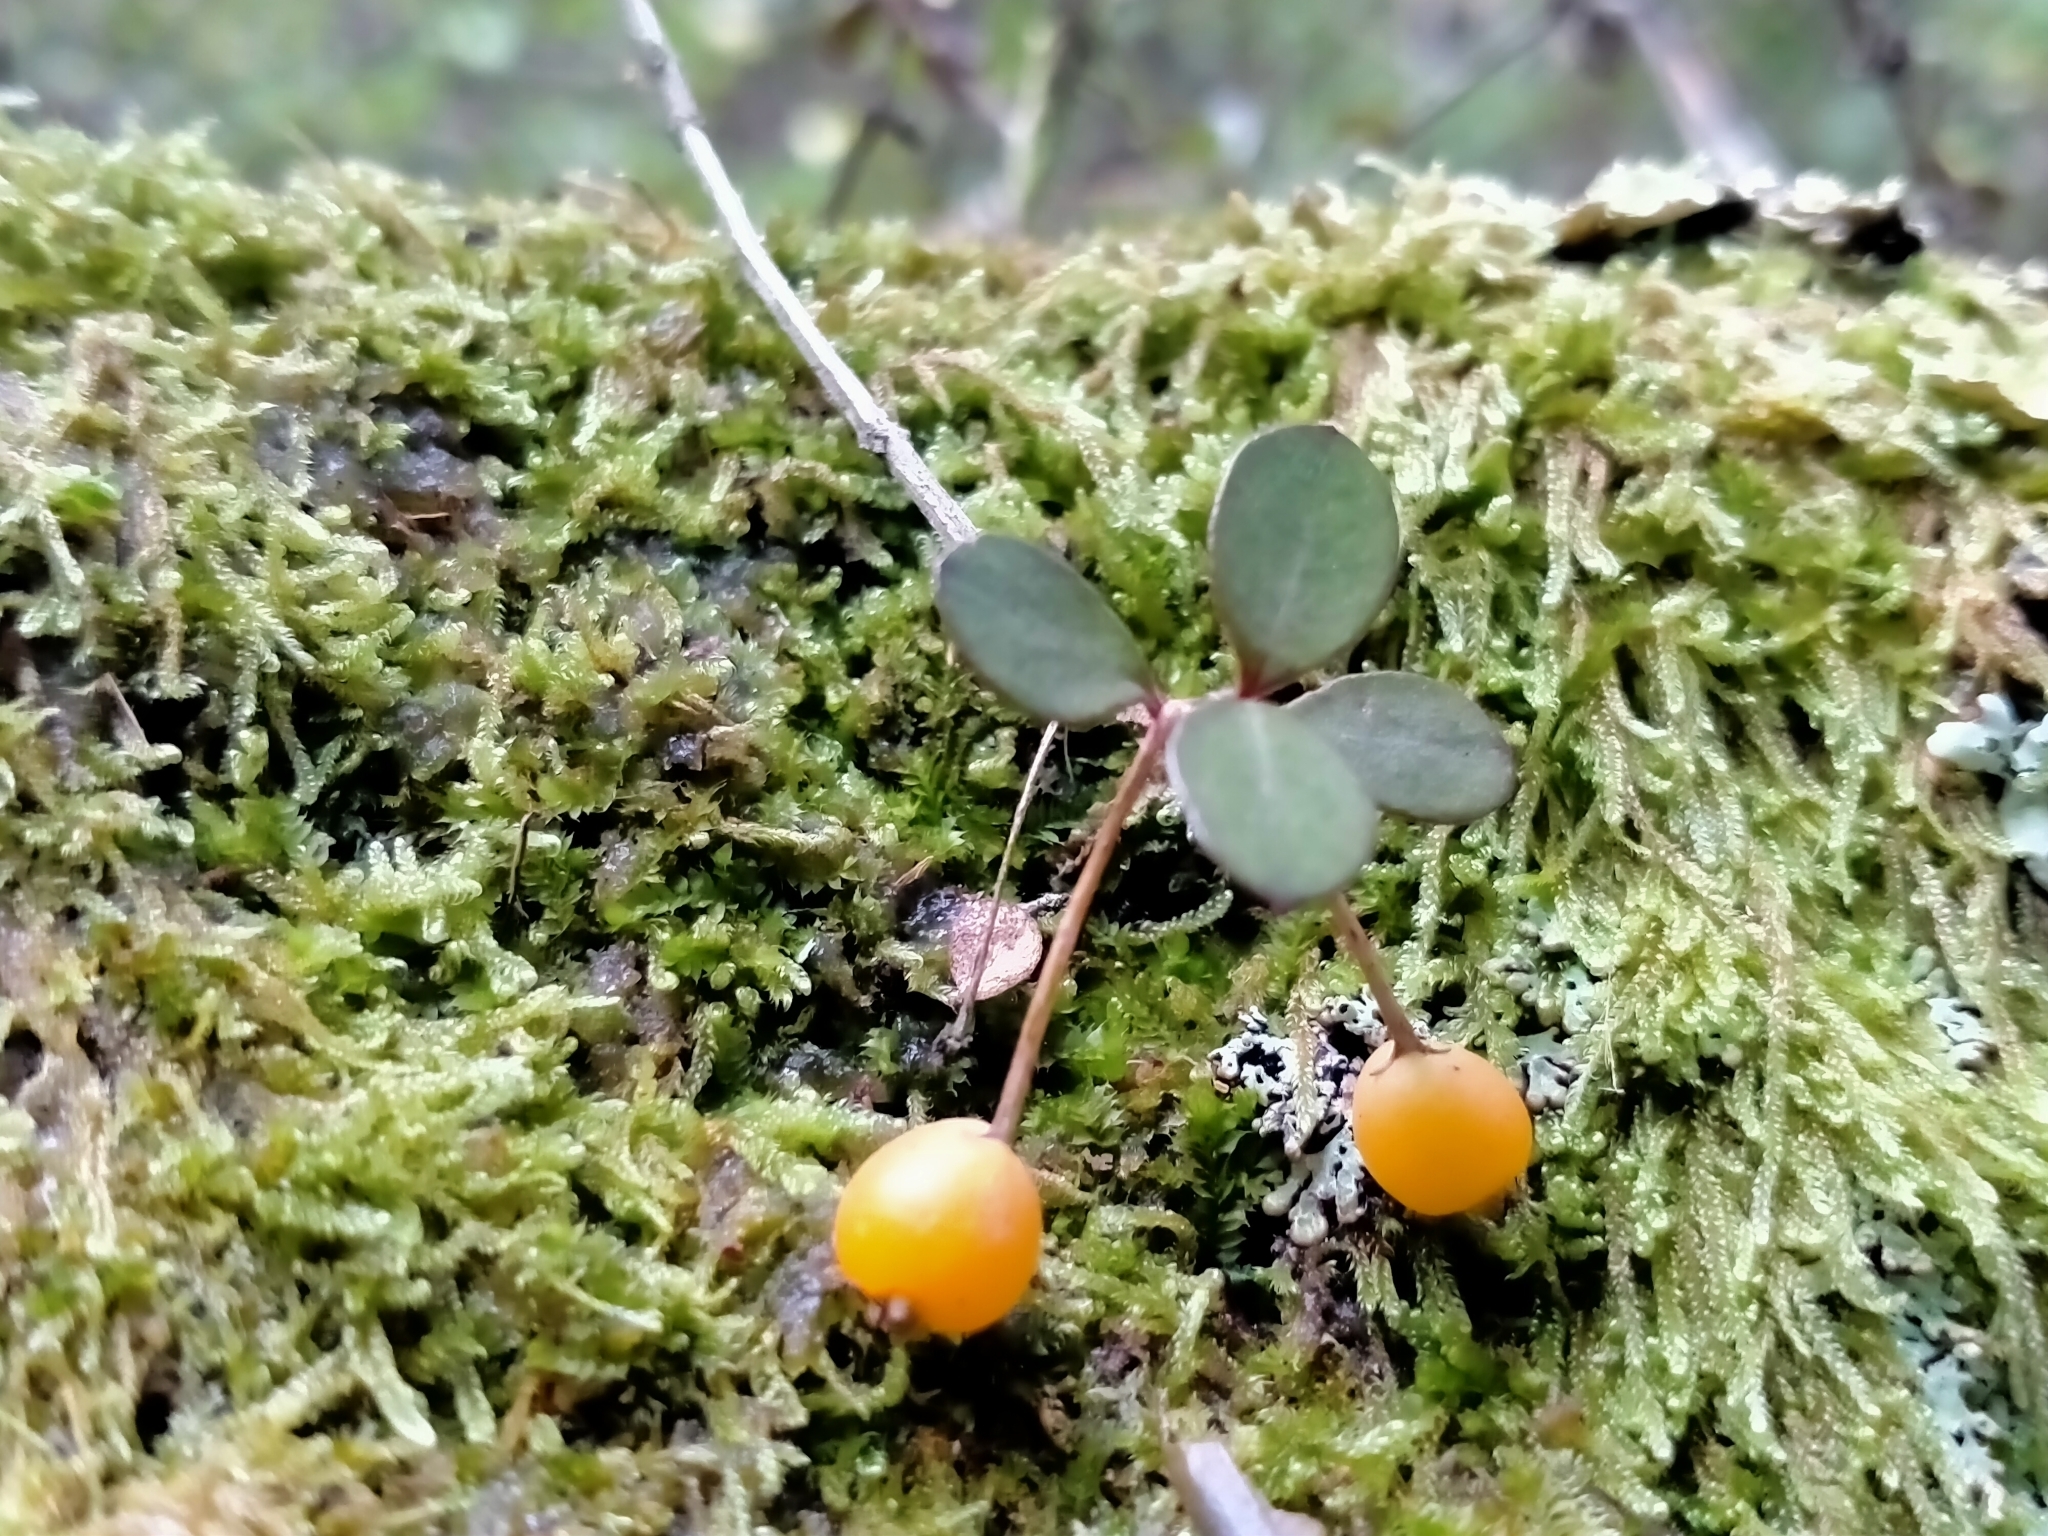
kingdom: Plantae
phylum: Tracheophyta
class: Magnoliopsida
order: Myrtales
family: Myrtaceae
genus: Neomyrtus
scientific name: Neomyrtus pedunculata
